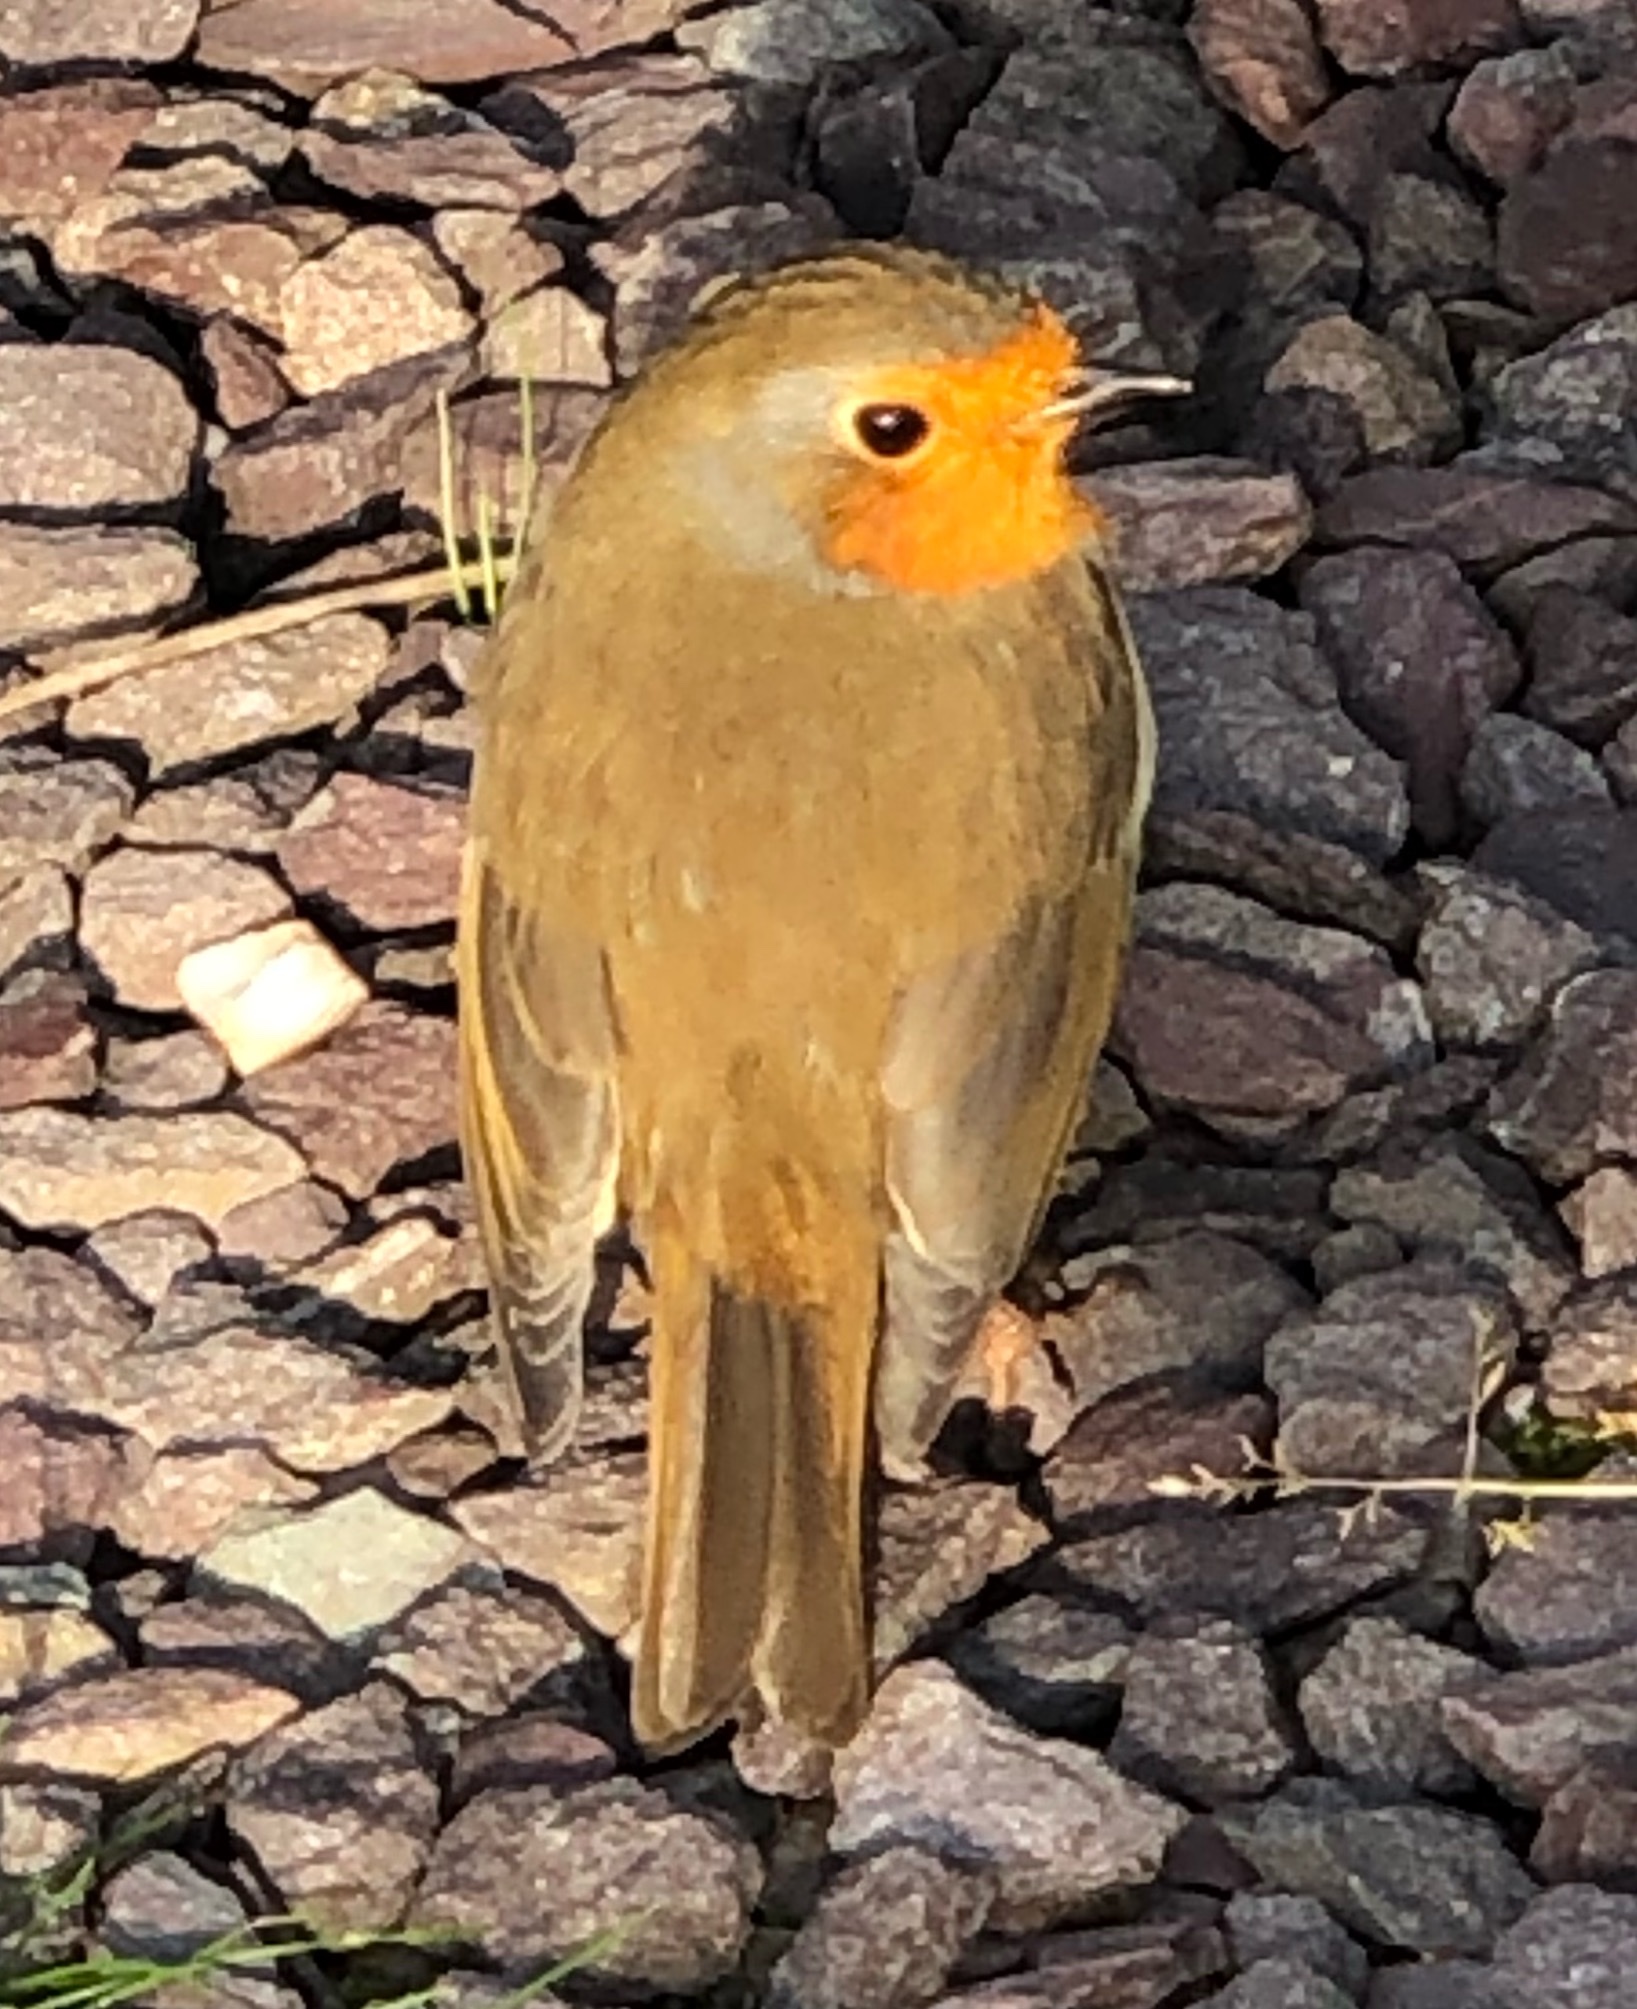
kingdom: Animalia
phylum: Chordata
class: Aves
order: Passeriformes
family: Muscicapidae
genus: Erithacus
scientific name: Erithacus rubecula
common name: European robin
